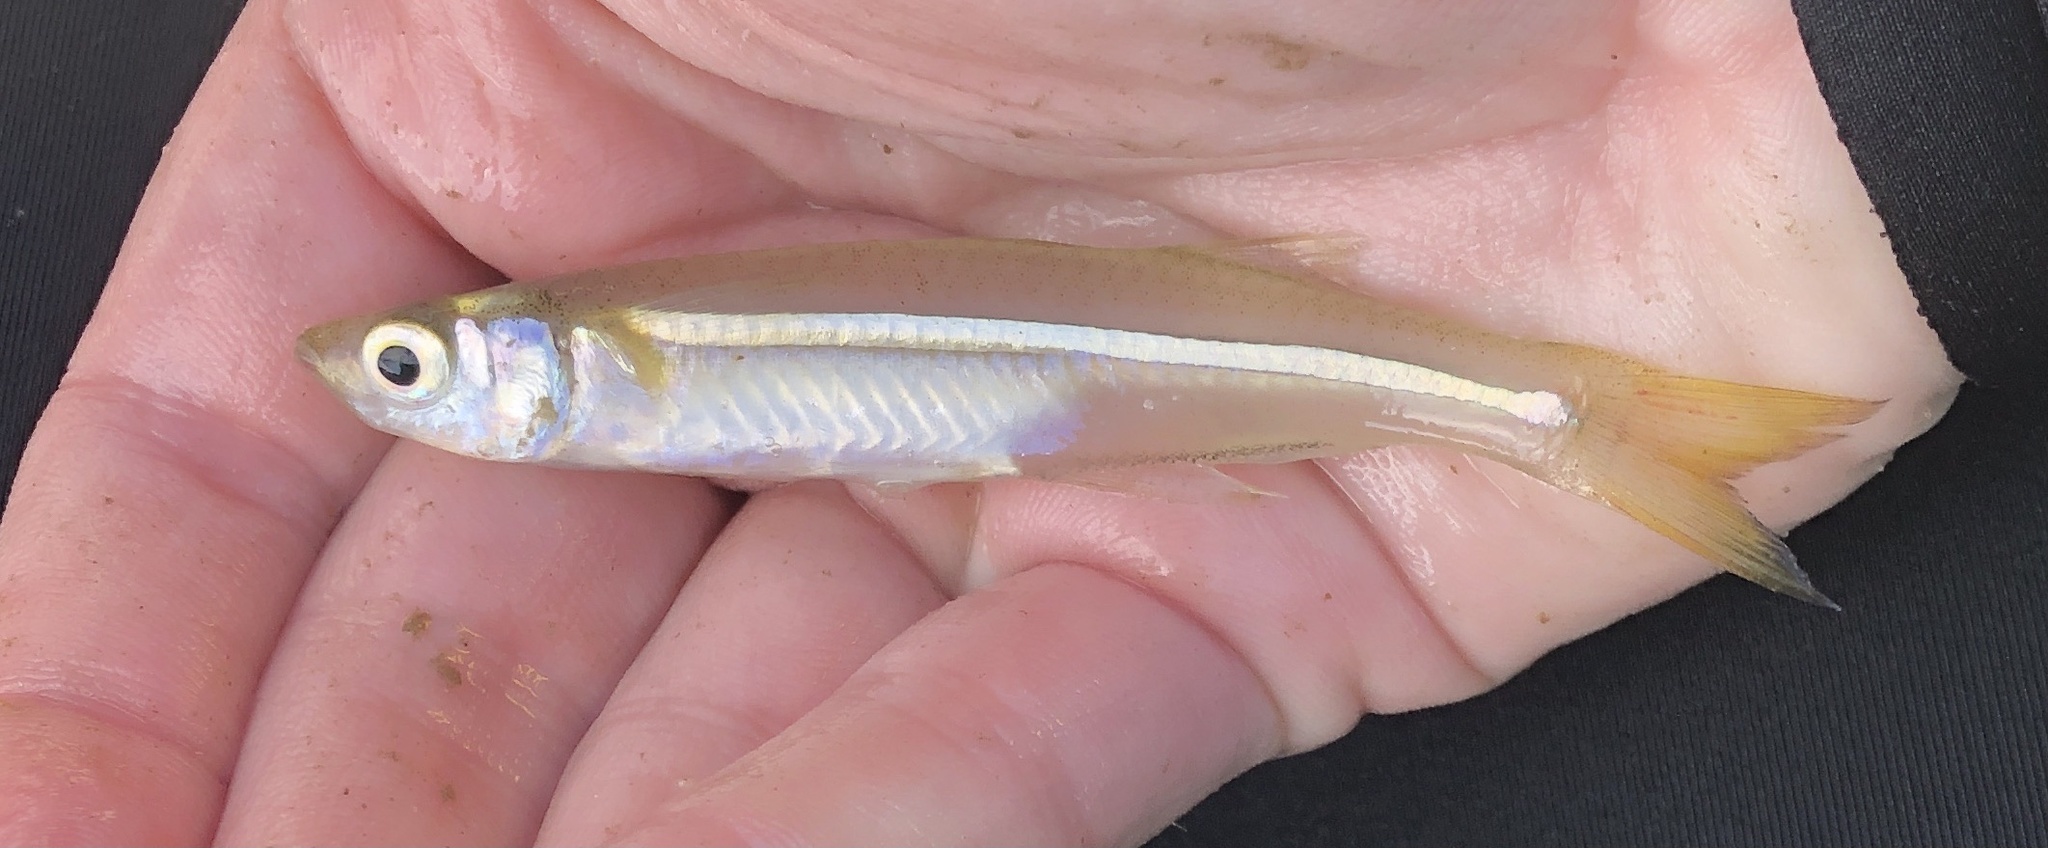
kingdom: Animalia
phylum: Chordata
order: Atheriniformes
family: Atherinopsidae
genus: Menidia
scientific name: Menidia beryllina
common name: Inland silverside
